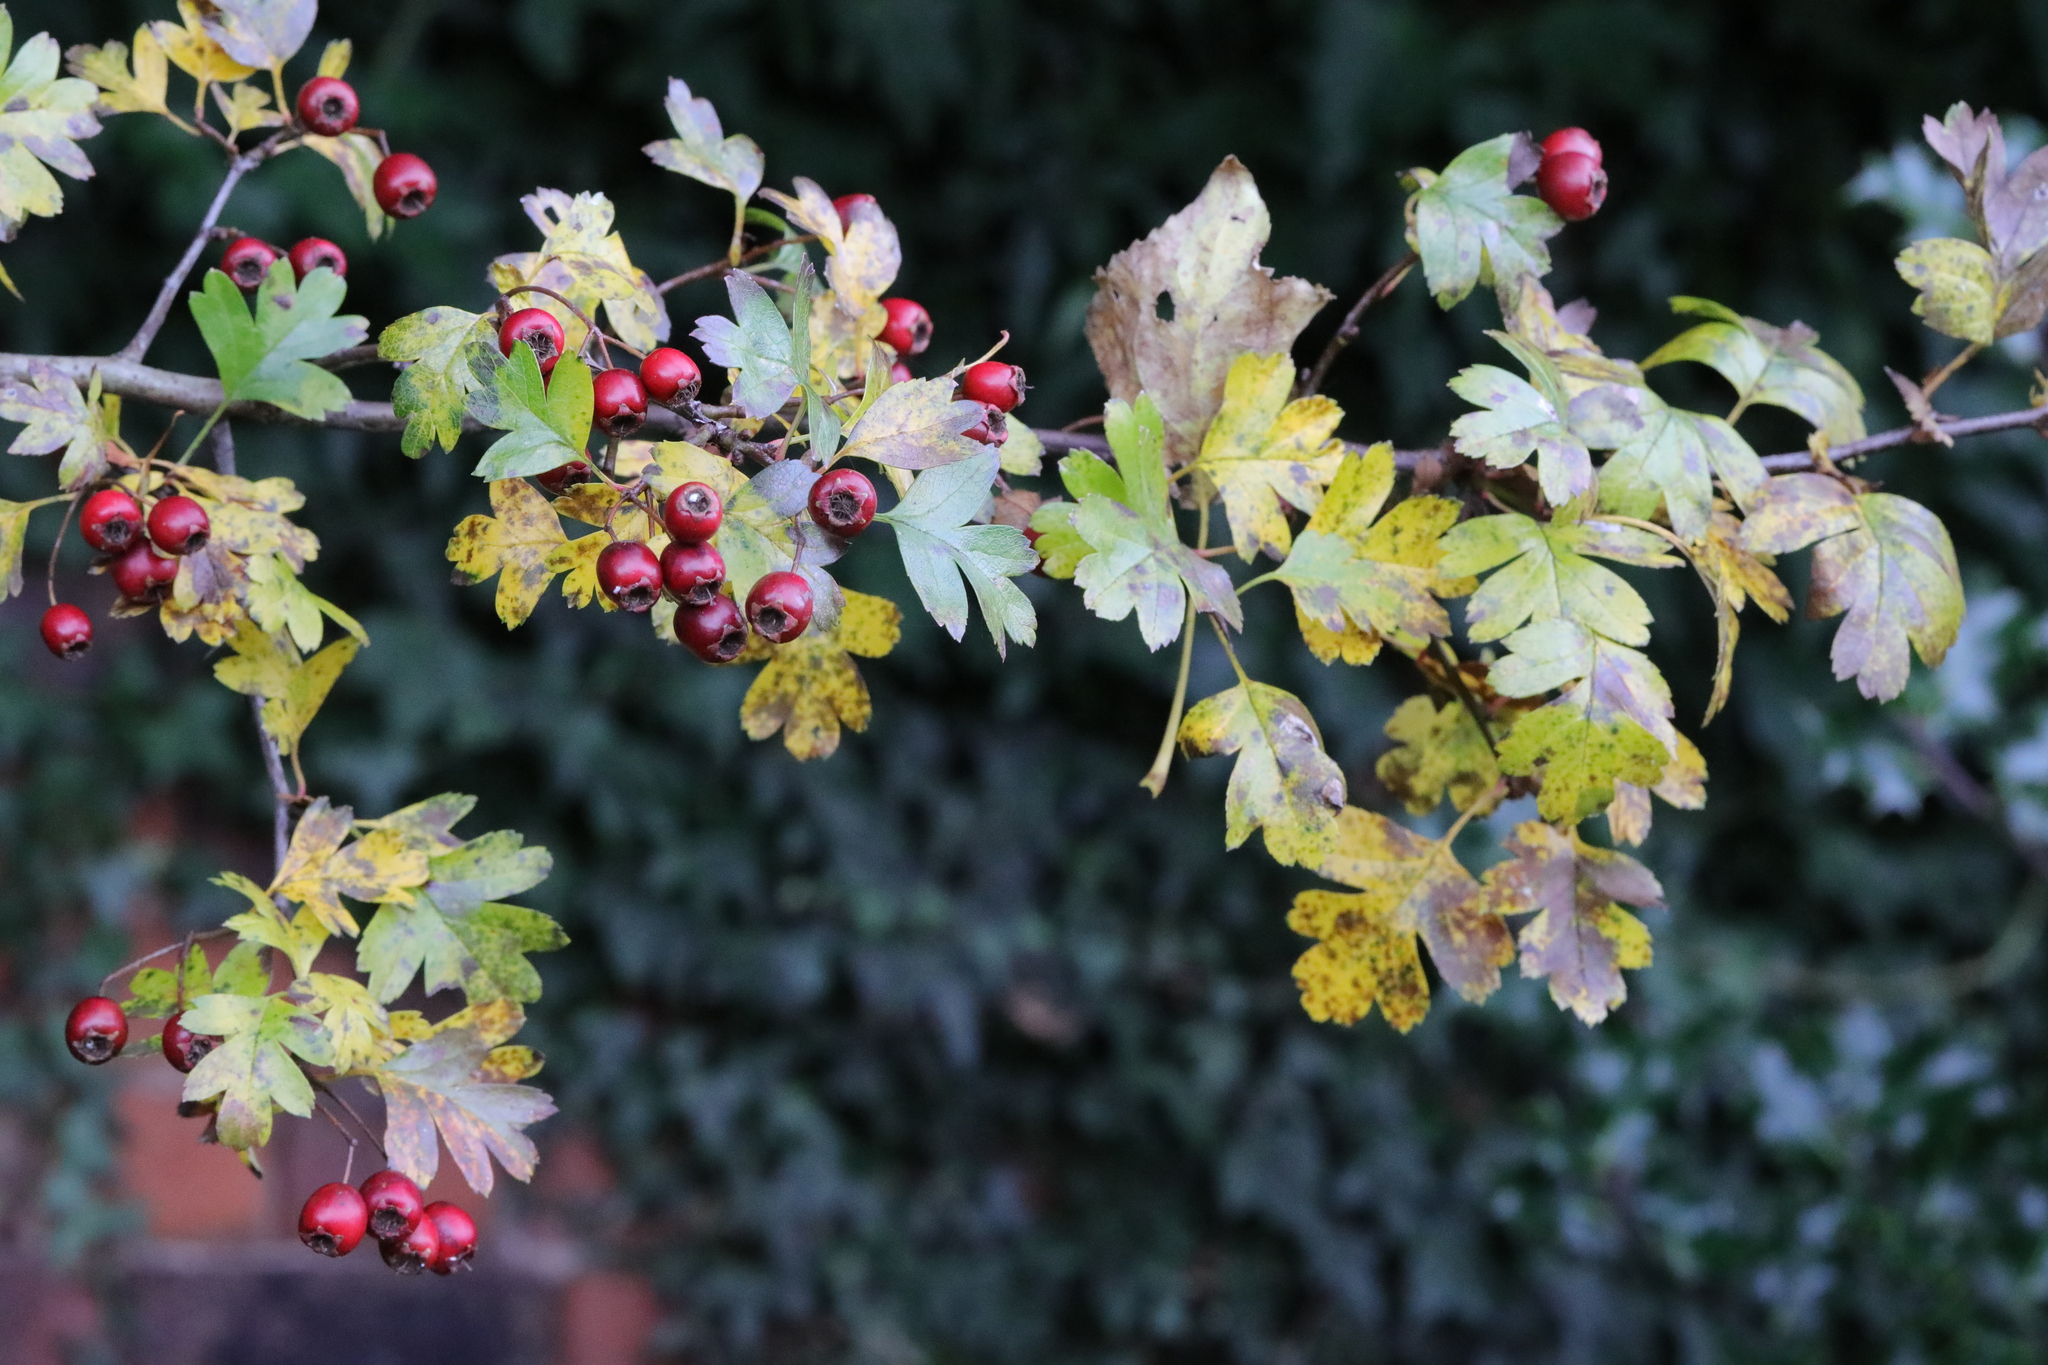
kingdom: Plantae
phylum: Tracheophyta
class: Magnoliopsida
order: Rosales
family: Rosaceae
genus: Crataegus
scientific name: Crataegus monogyna
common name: Hawthorn
